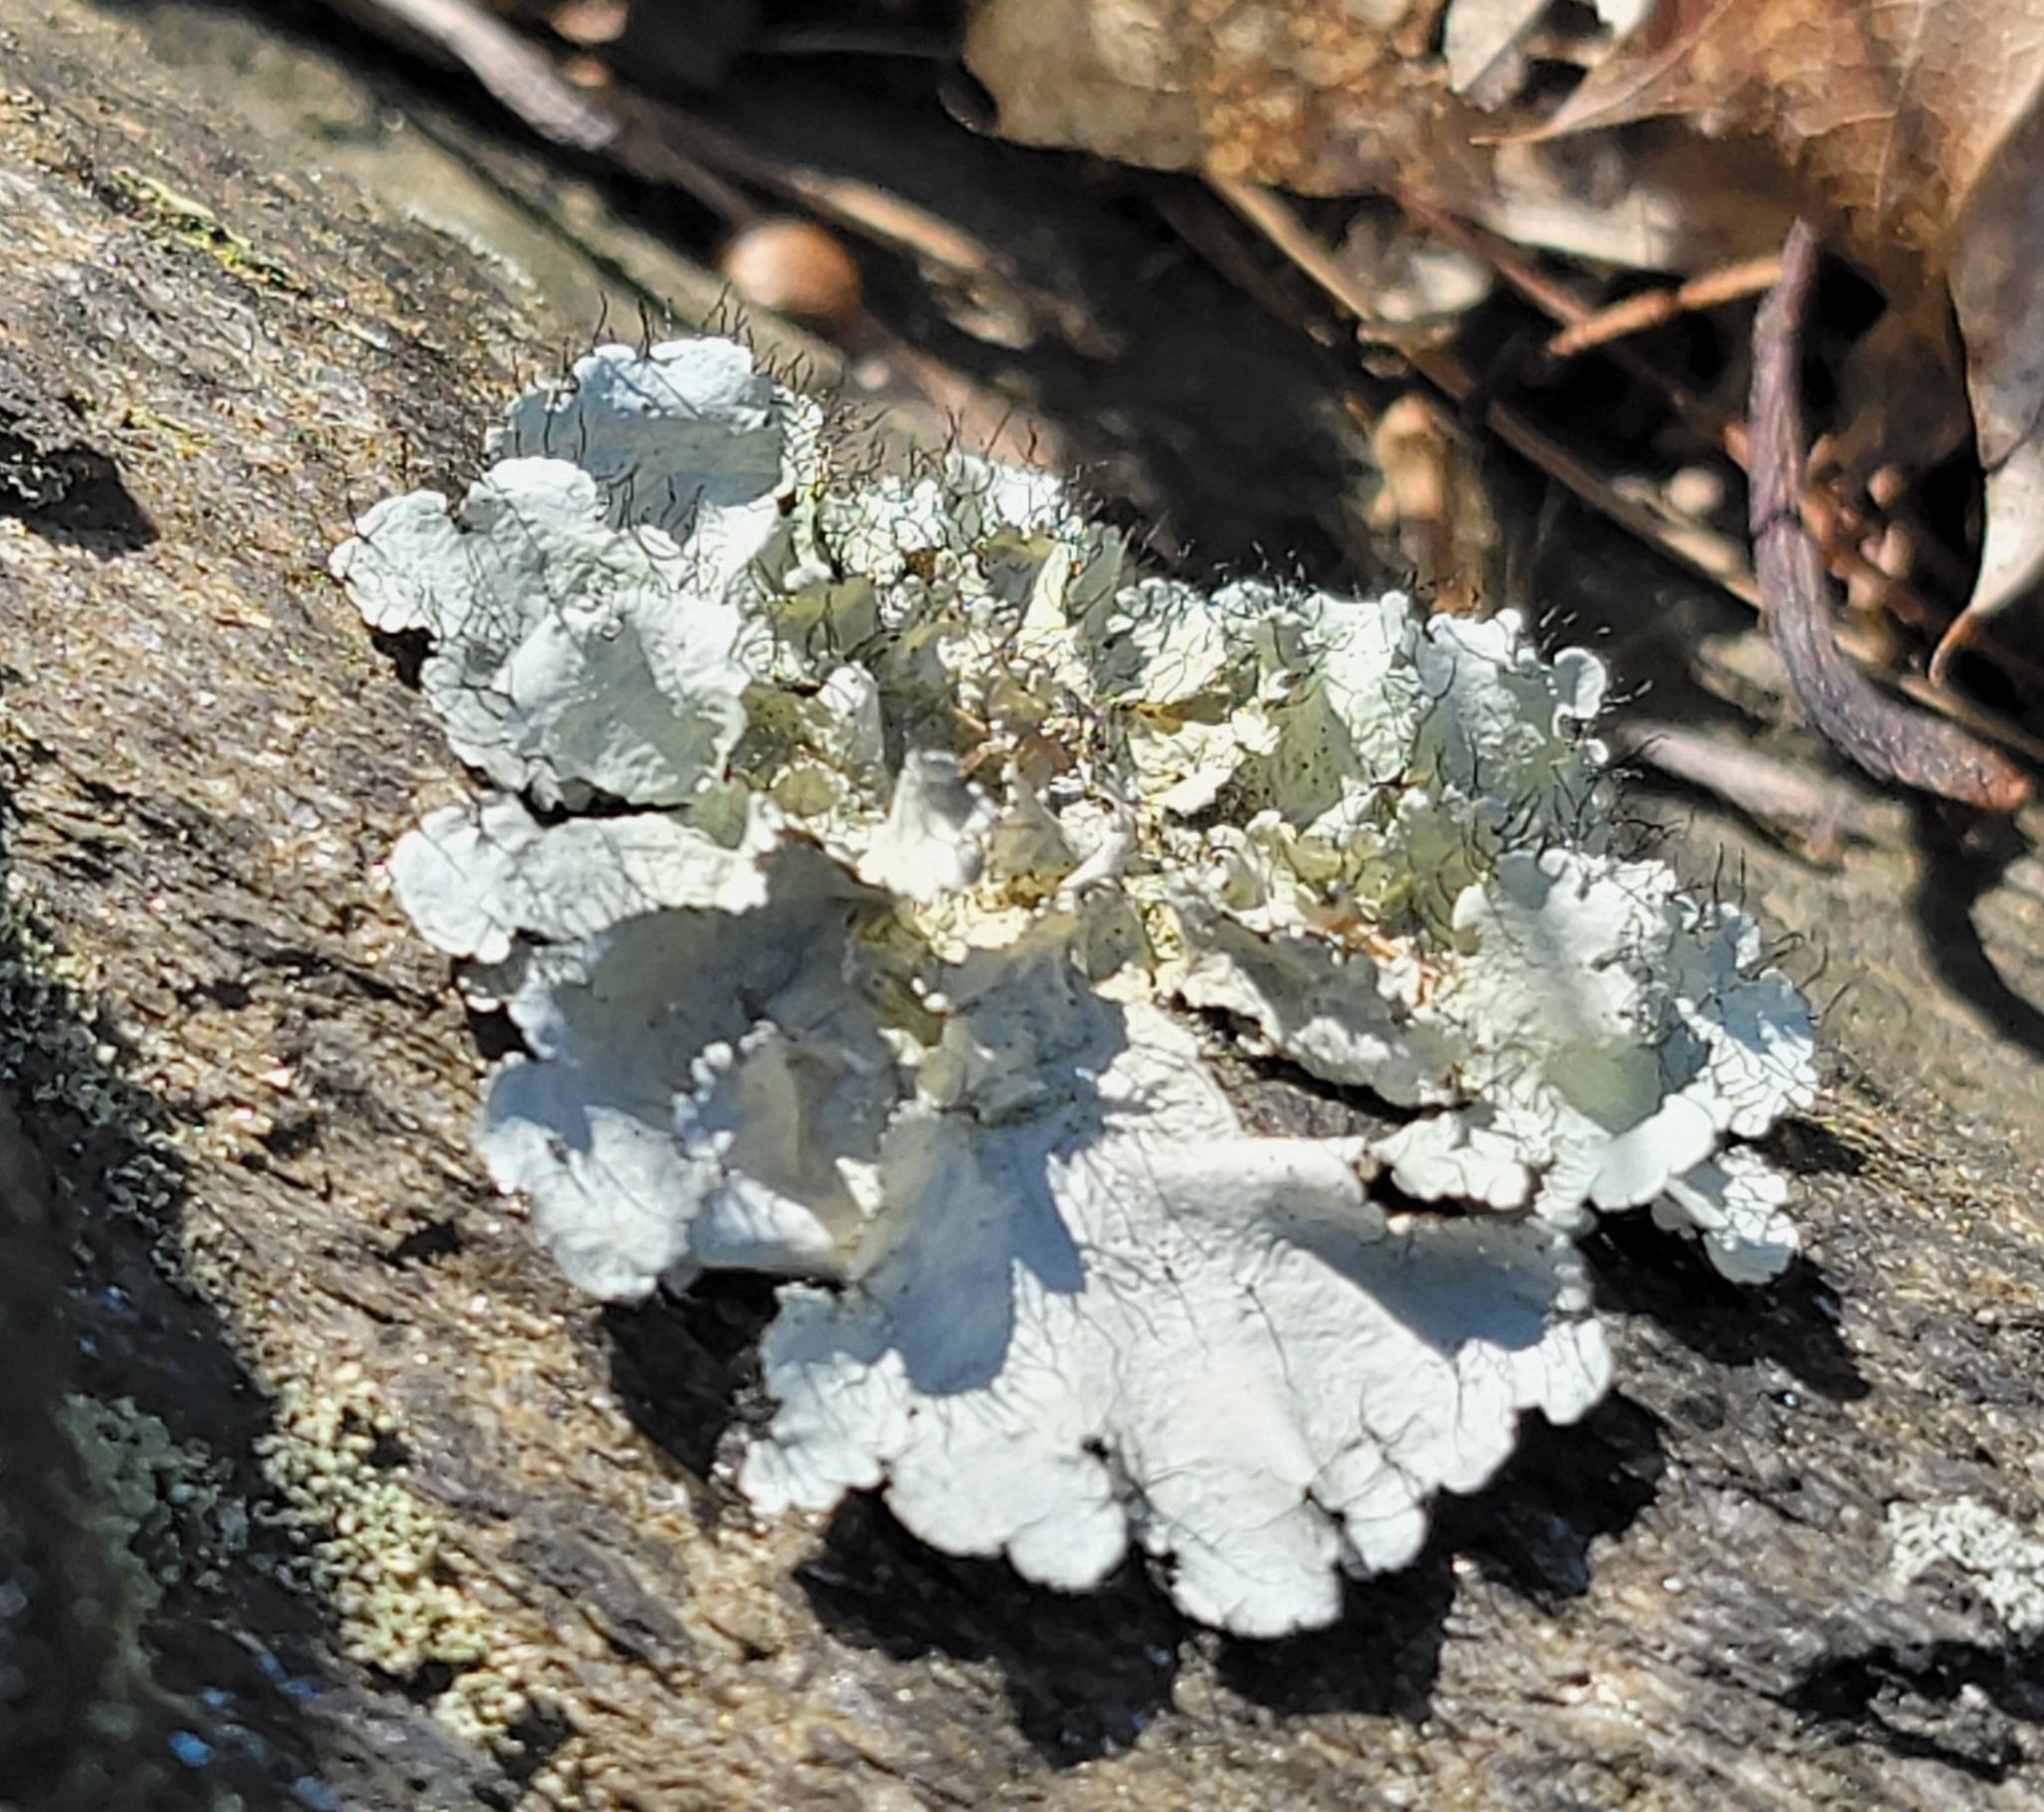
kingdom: Fungi
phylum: Ascomycota
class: Lecanoromycetes
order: Lecanorales
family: Parmeliaceae
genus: Parmotrema
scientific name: Parmotrema hypotropum
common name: Powdered ruffle lichen
